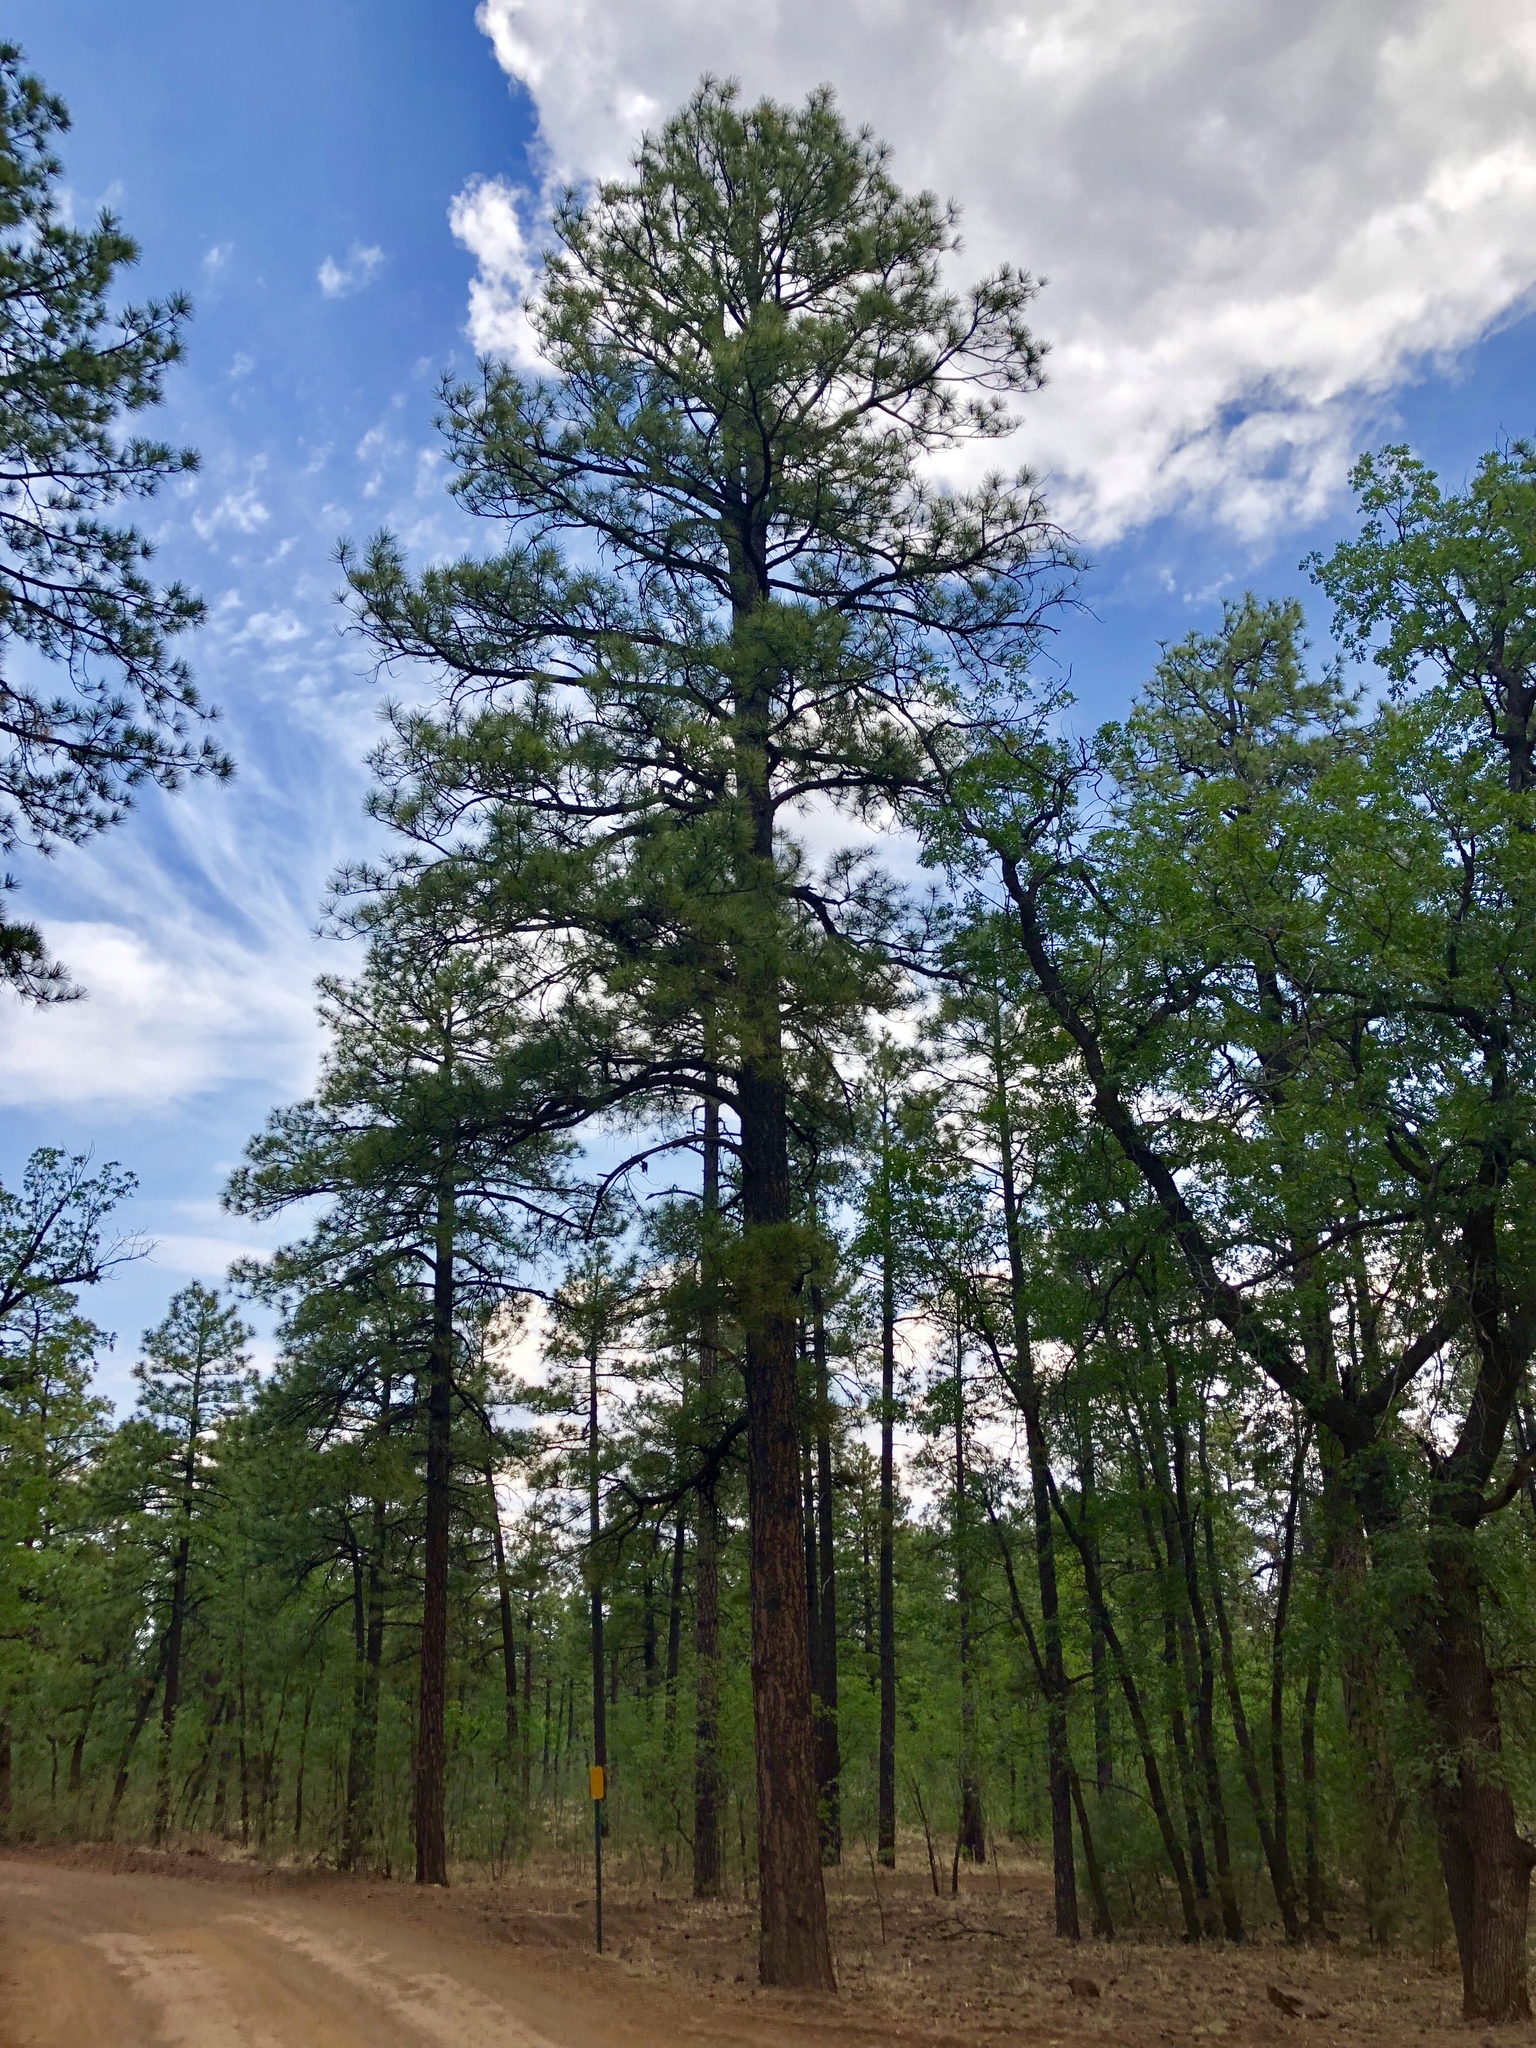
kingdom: Plantae
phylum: Tracheophyta
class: Pinopsida
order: Pinales
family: Pinaceae
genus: Pinus
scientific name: Pinus ponderosa
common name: Western yellow-pine
